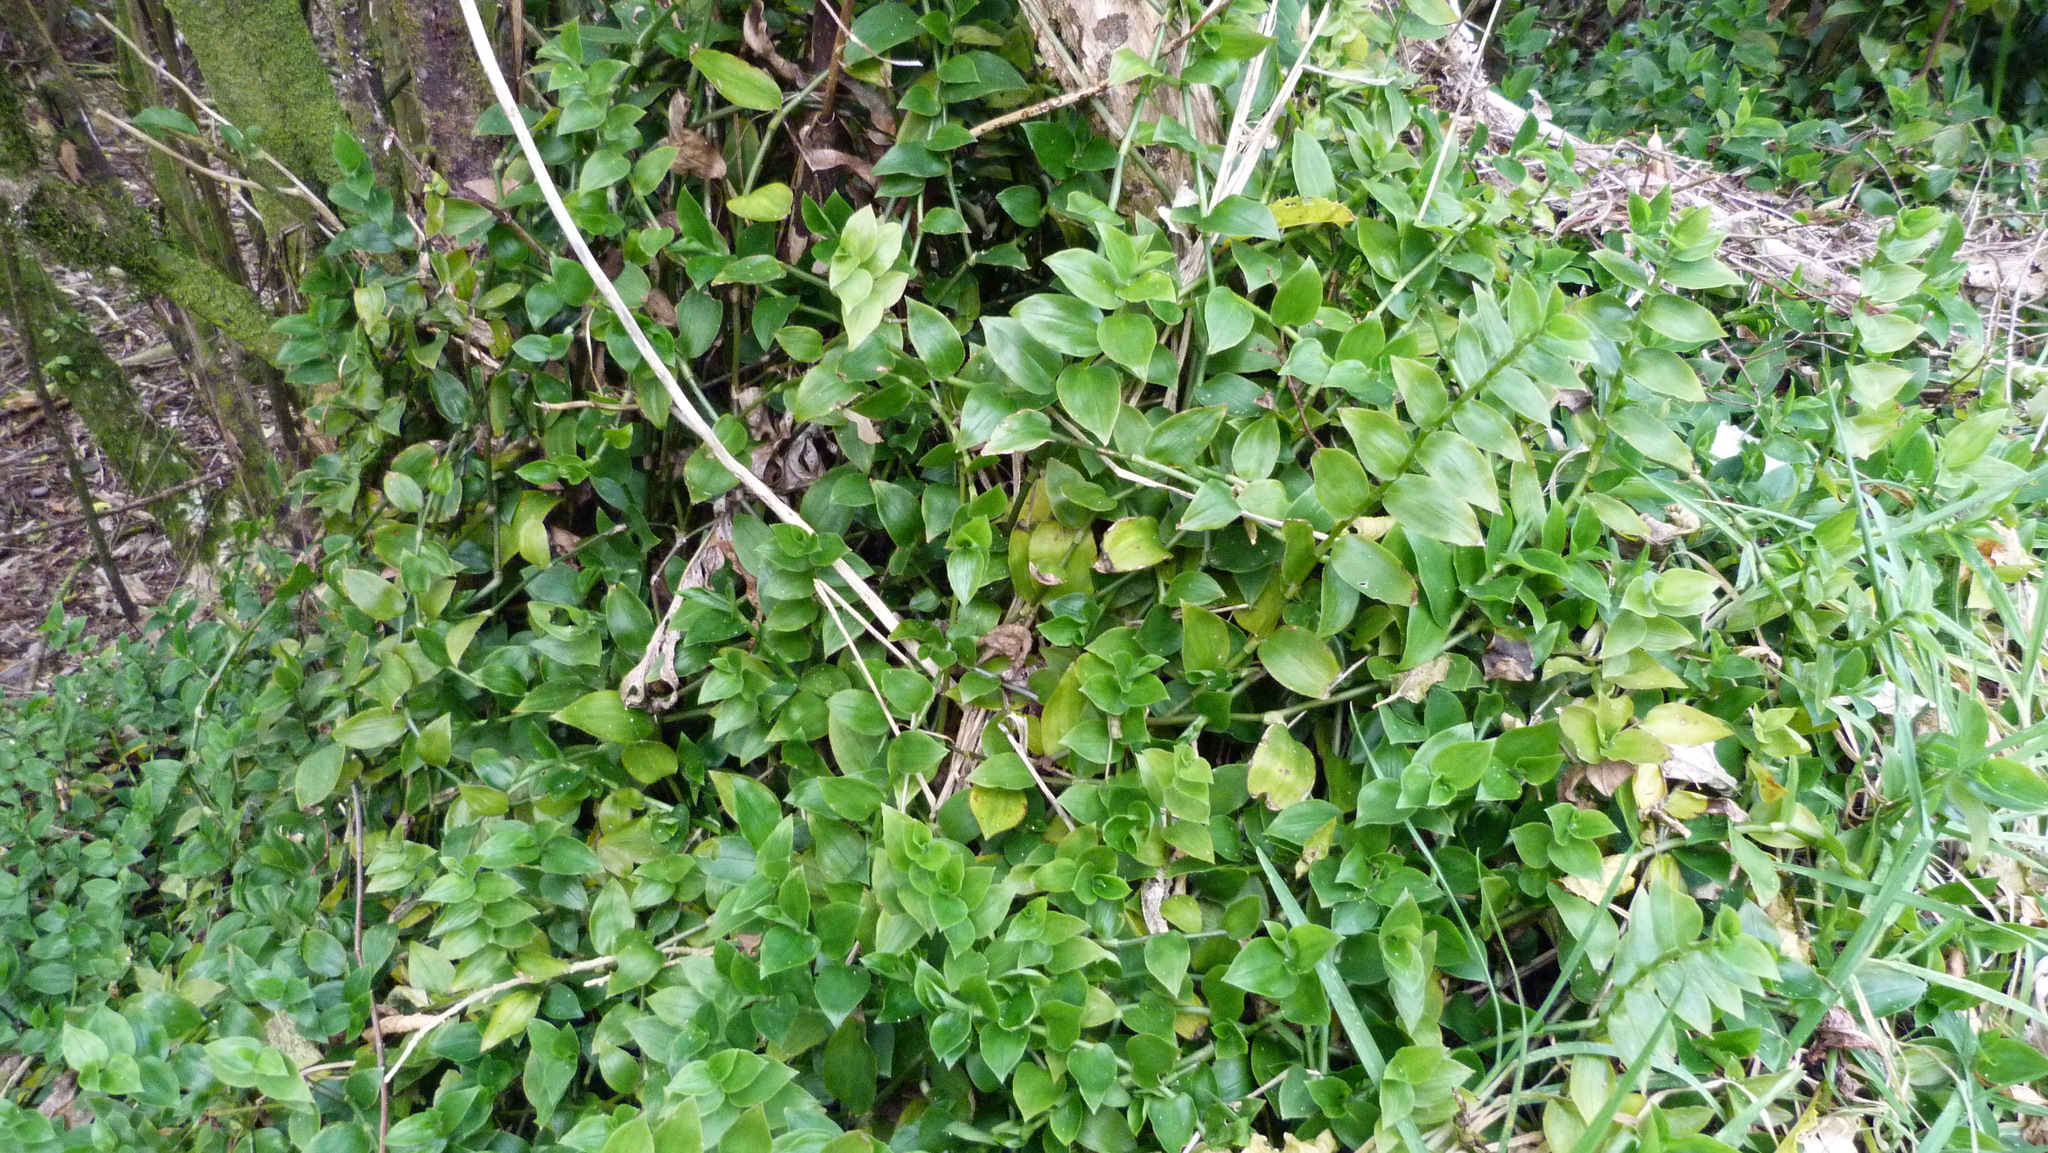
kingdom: Plantae
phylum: Tracheophyta
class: Liliopsida
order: Commelinales
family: Commelinaceae
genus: Tradescantia
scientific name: Tradescantia fluminensis
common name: Wandering-jew
